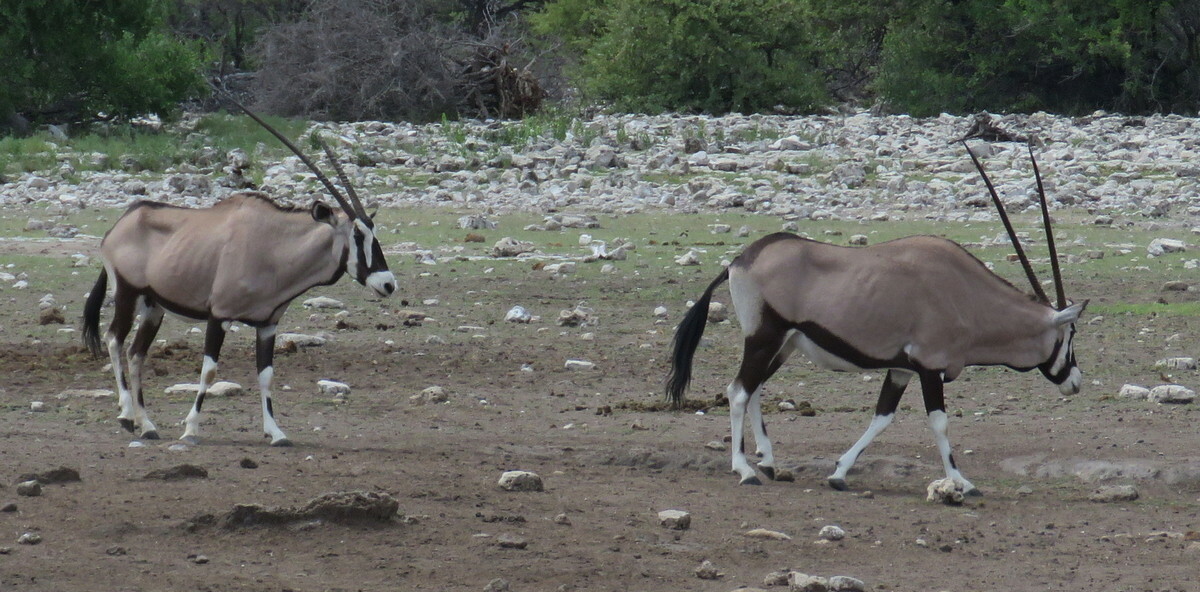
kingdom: Animalia
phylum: Chordata
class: Mammalia
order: Artiodactyla
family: Bovidae
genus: Oryx
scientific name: Oryx gazella
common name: Gemsbok
